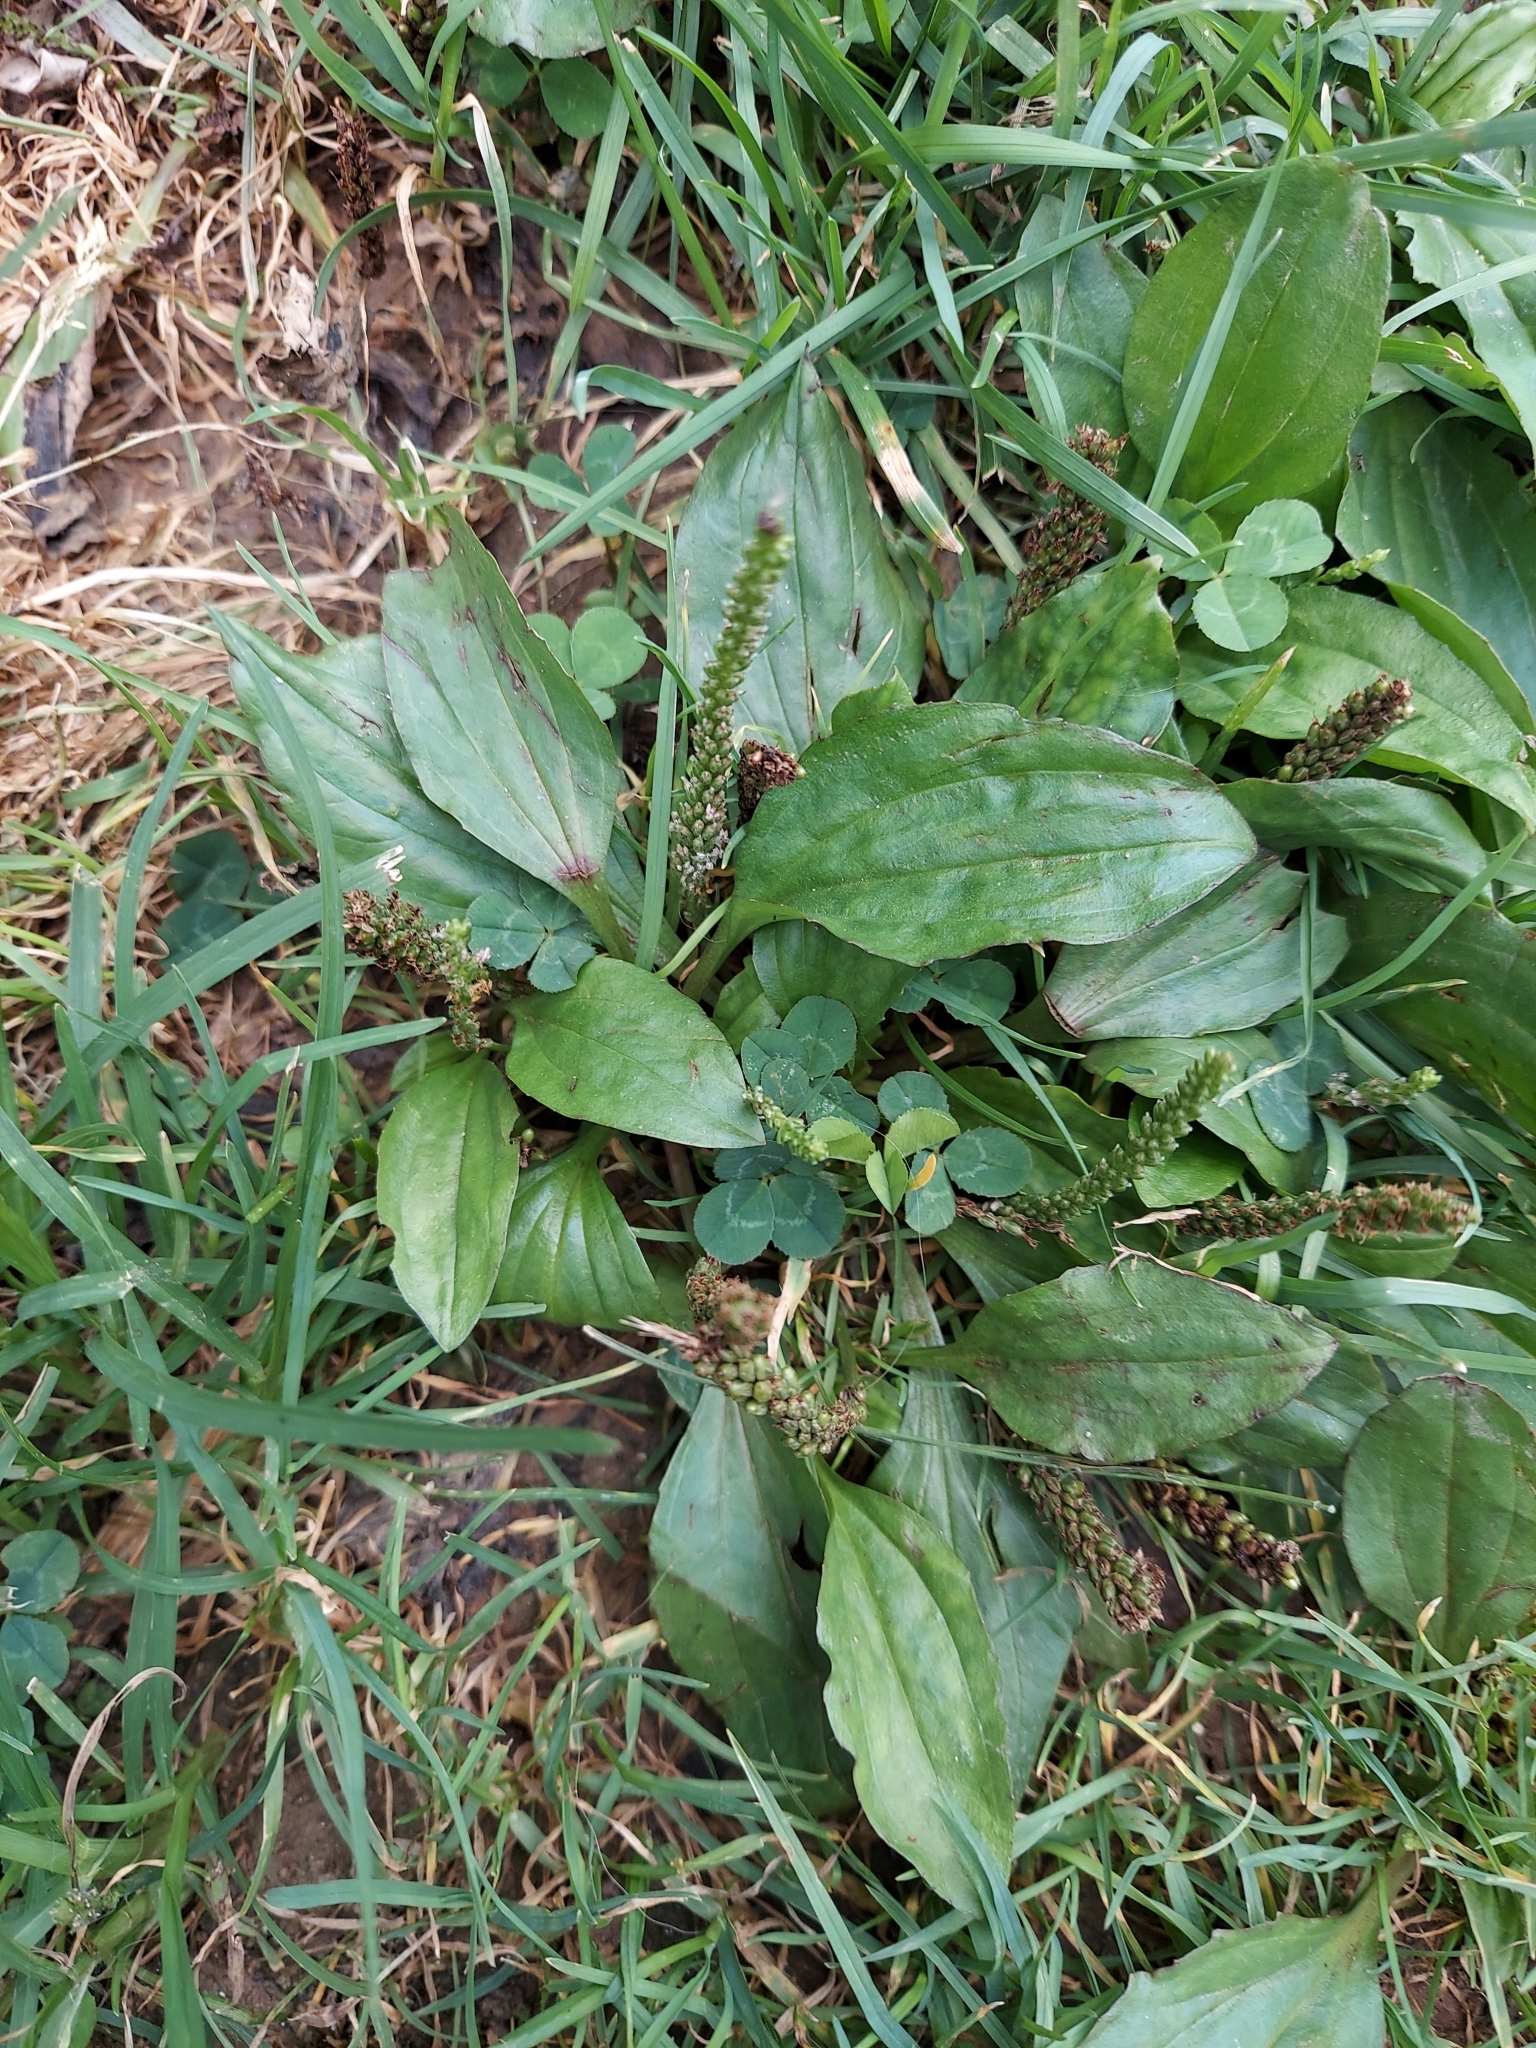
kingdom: Plantae
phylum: Tracheophyta
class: Magnoliopsida
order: Lamiales
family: Plantaginaceae
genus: Plantago
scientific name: Plantago major
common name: Common plantain
